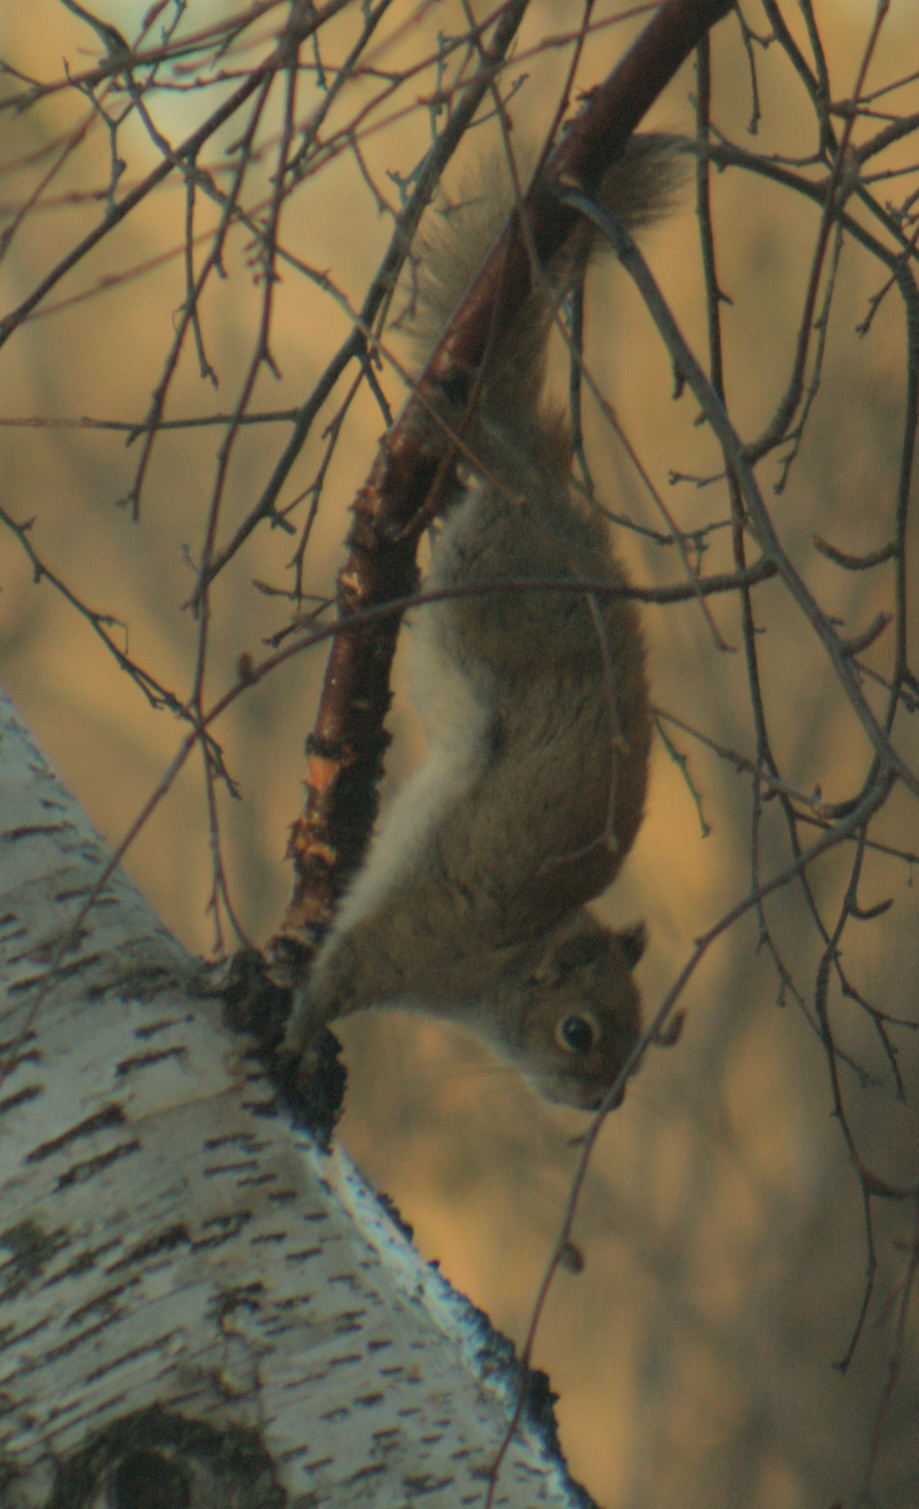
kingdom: Animalia
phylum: Chordata
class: Mammalia
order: Rodentia
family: Sciuridae
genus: Tamiasciurus
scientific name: Tamiasciurus hudsonicus
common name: Red squirrel
